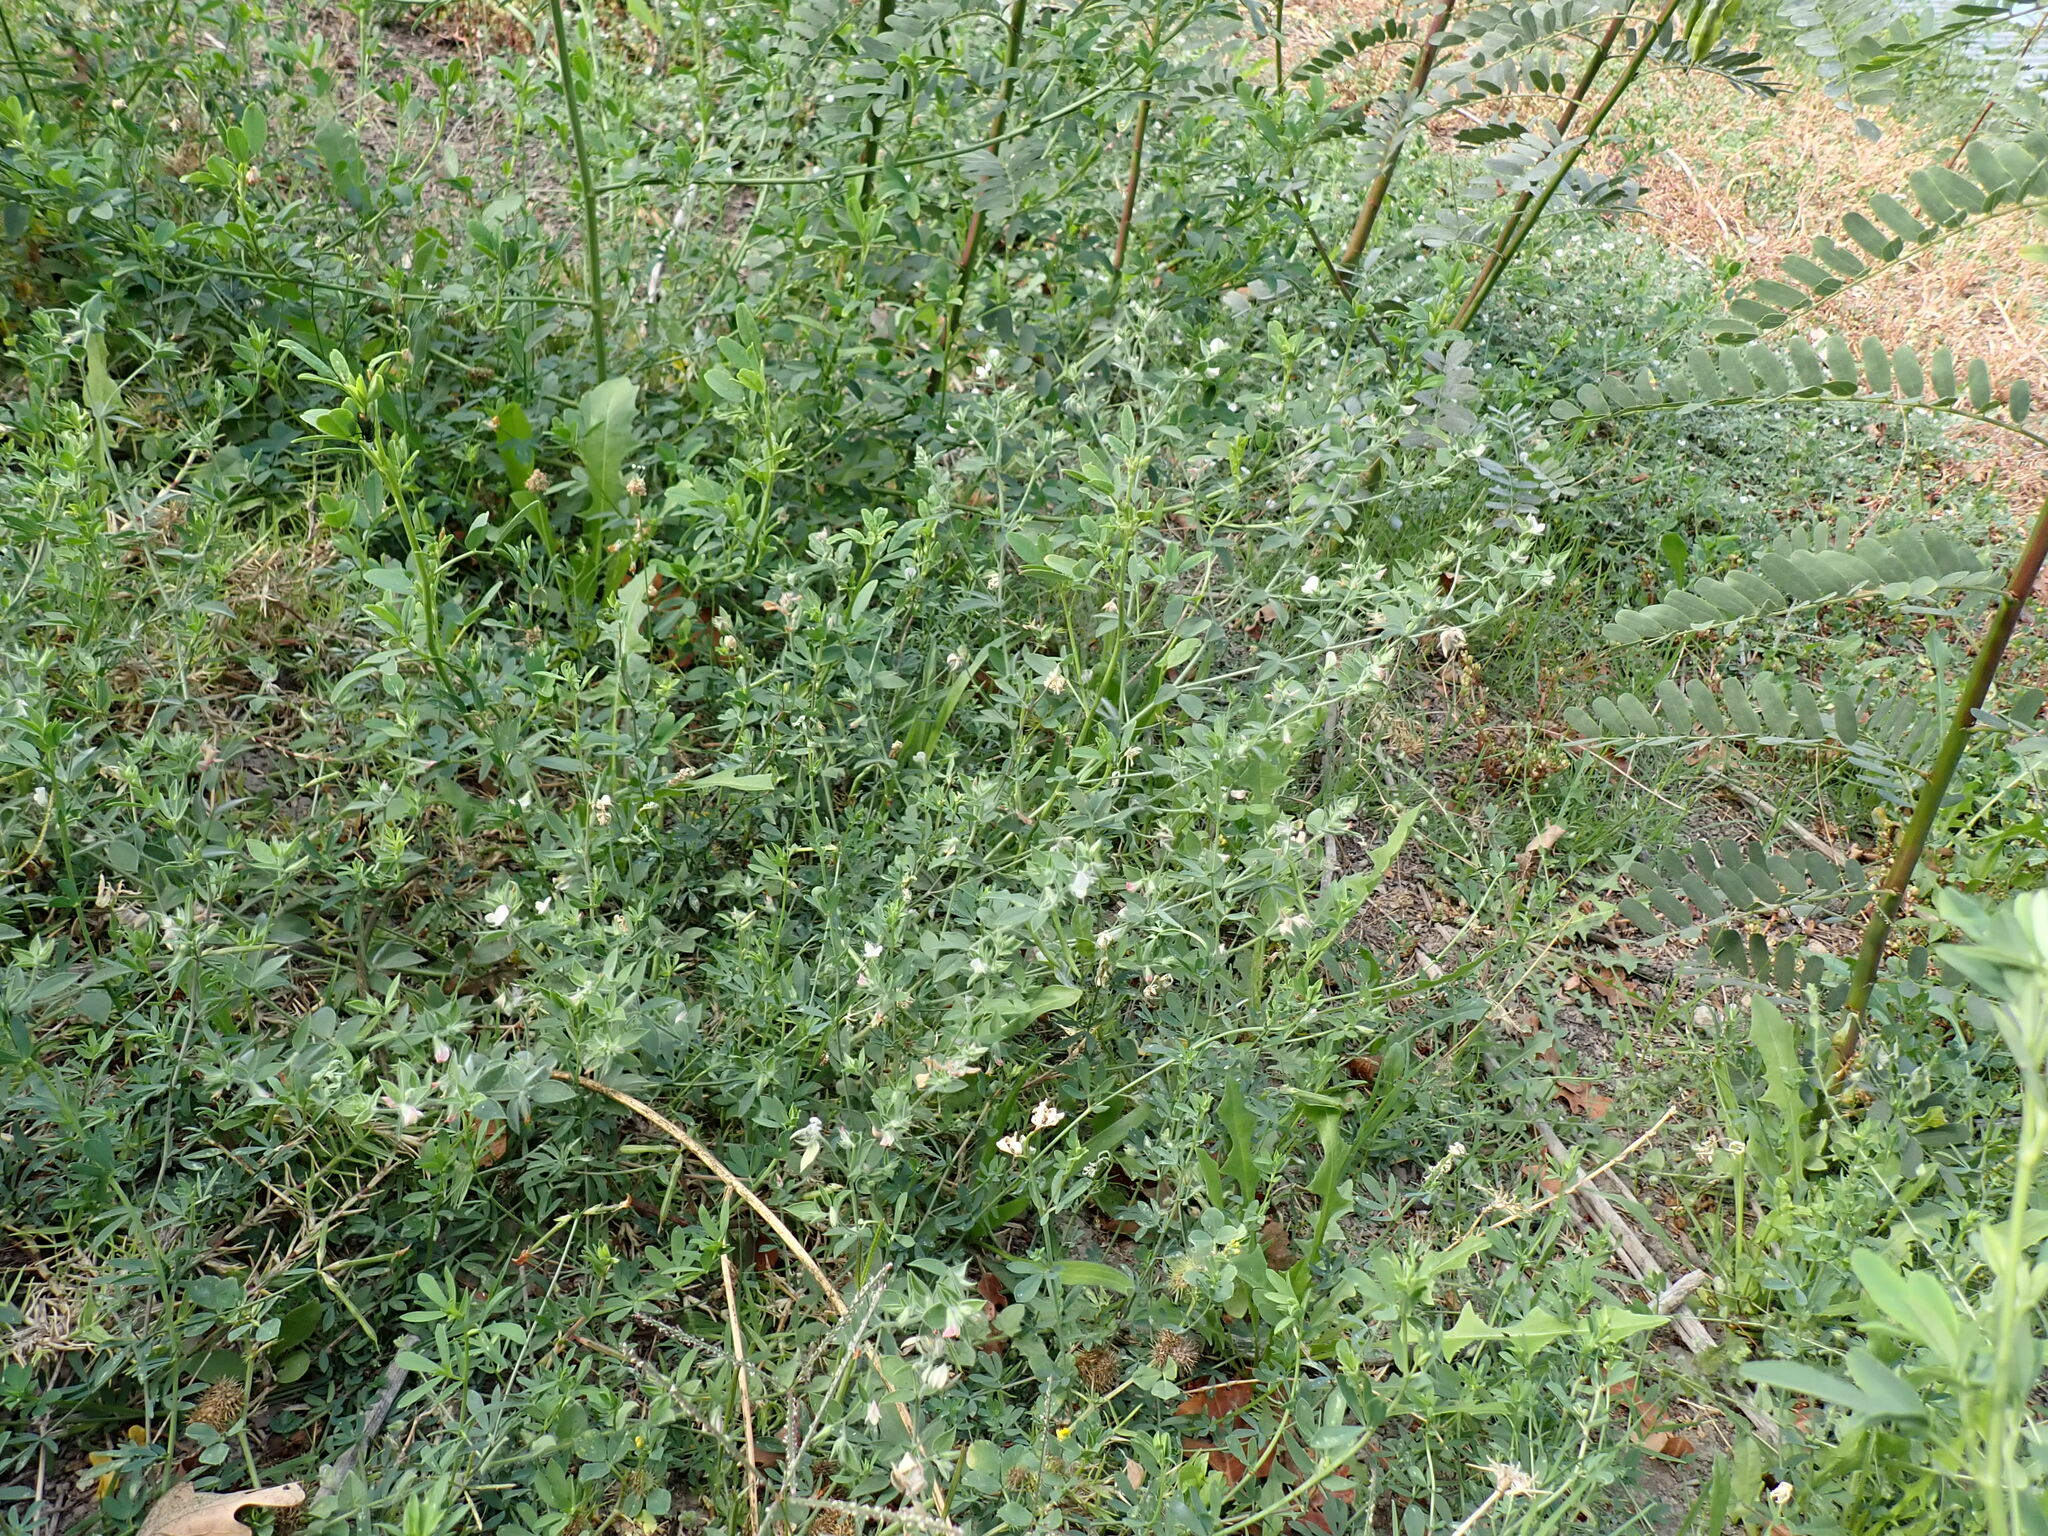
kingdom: Plantae
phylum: Tracheophyta
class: Magnoliopsida
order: Fabales
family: Fabaceae
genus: Acmispon
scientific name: Acmispon americanus
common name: American bird's-foot trefoil
